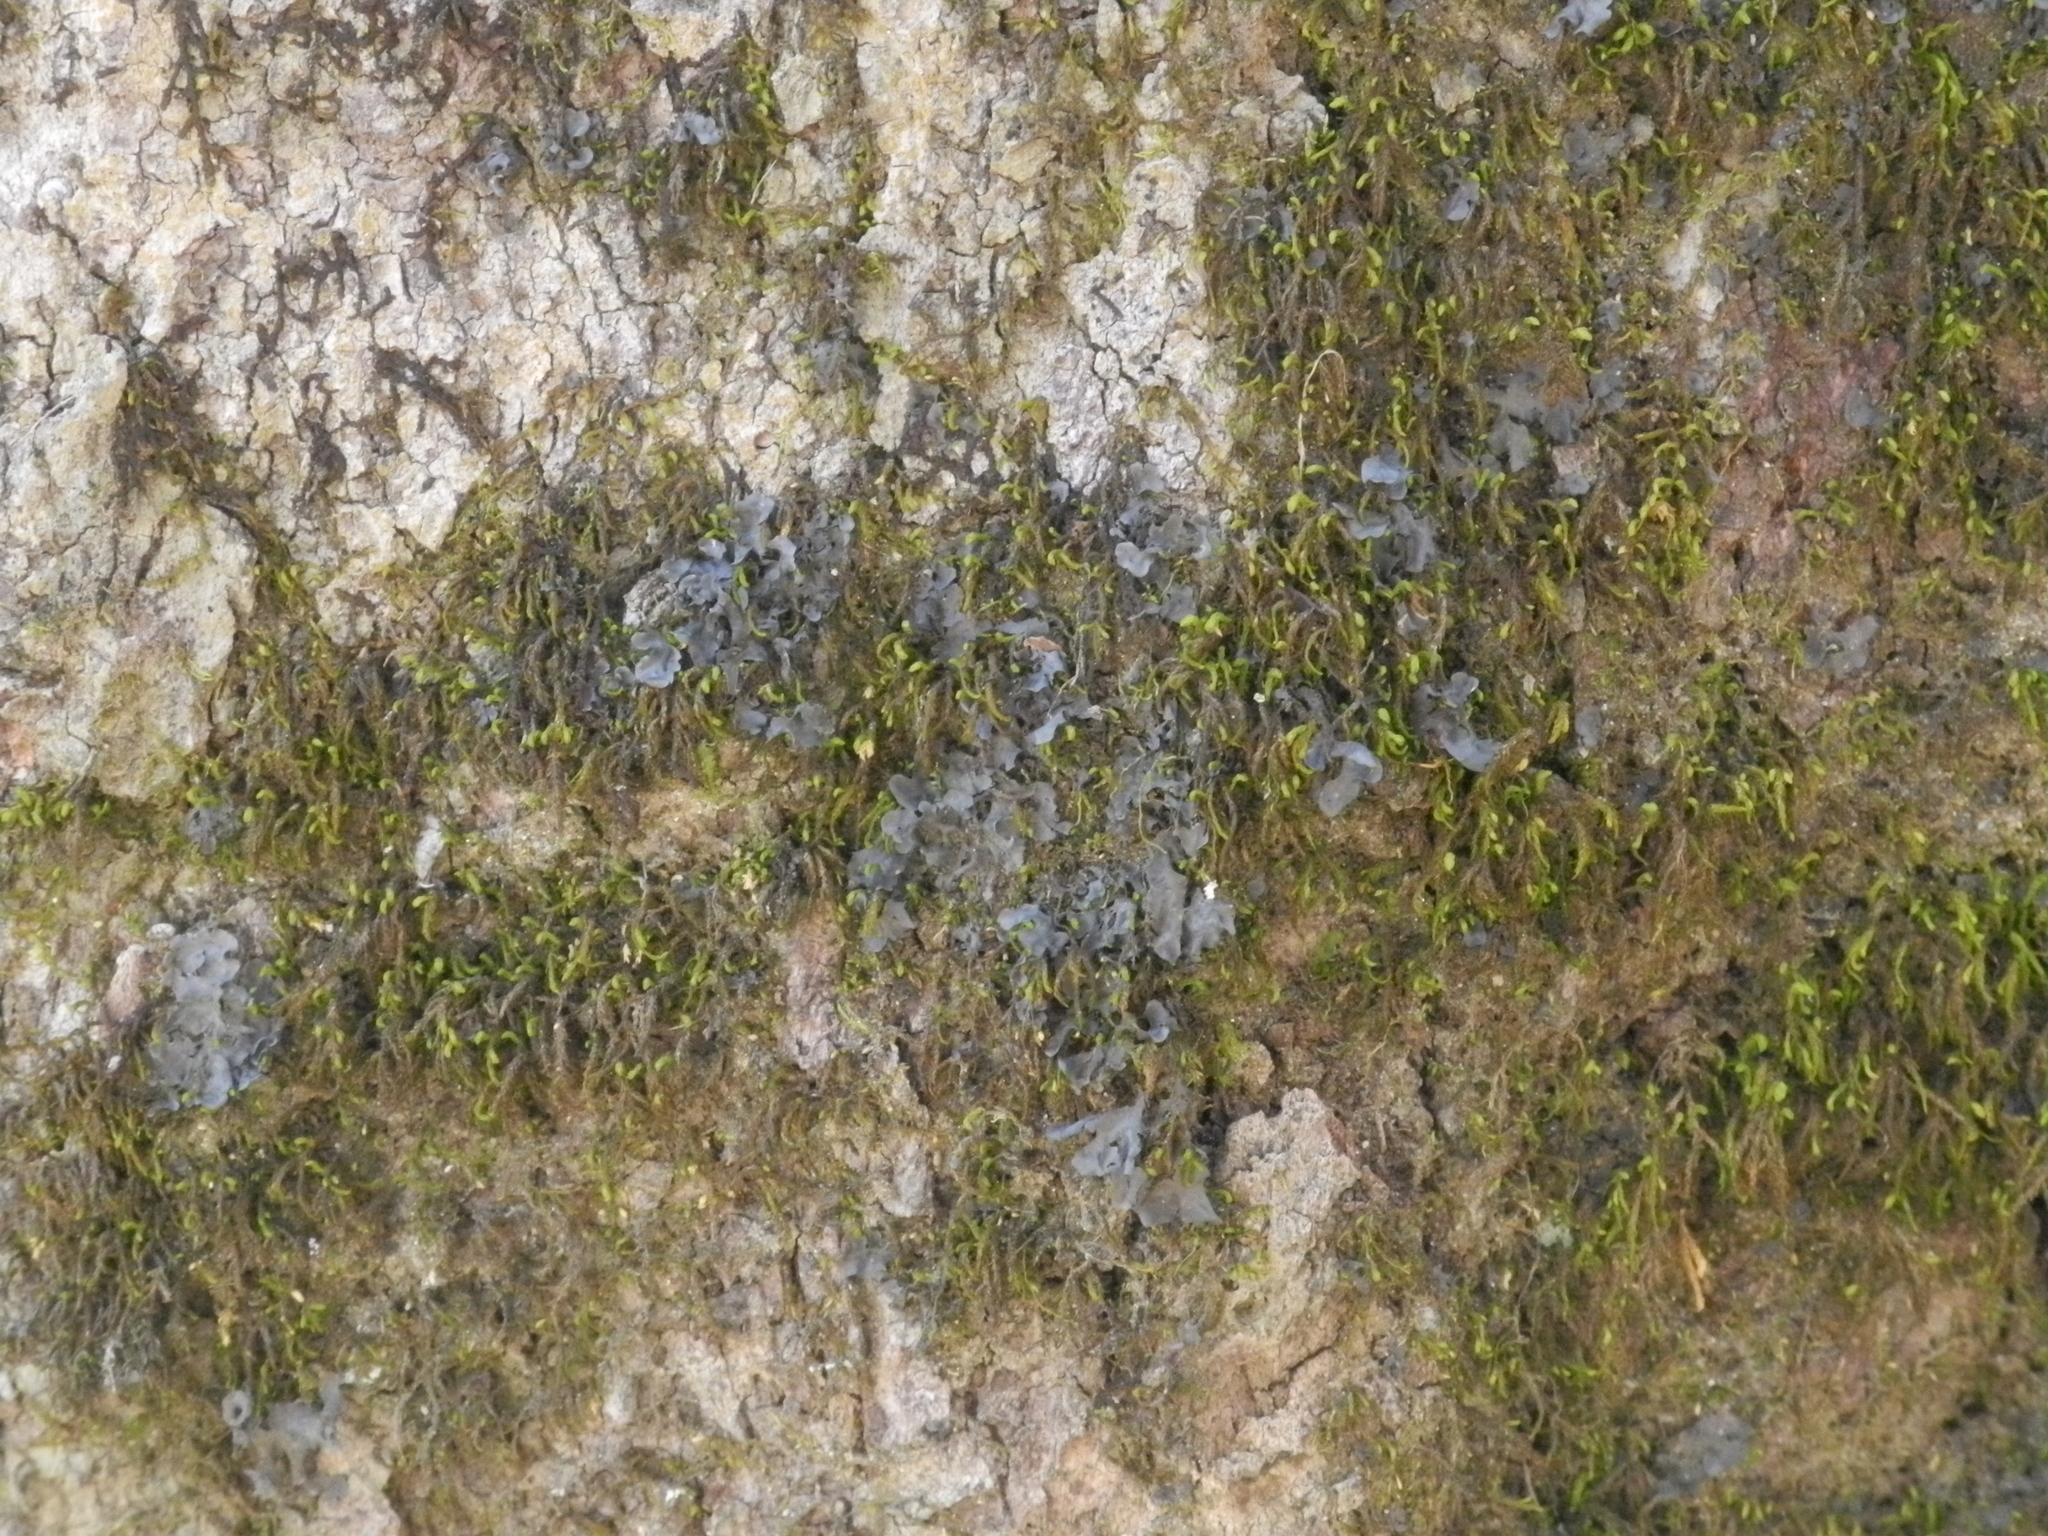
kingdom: Fungi
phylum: Ascomycota
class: Lecanoromycetes
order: Peltigerales
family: Collemataceae
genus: Leptogium
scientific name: Leptogium cyanescens
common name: Blue jellyskin
